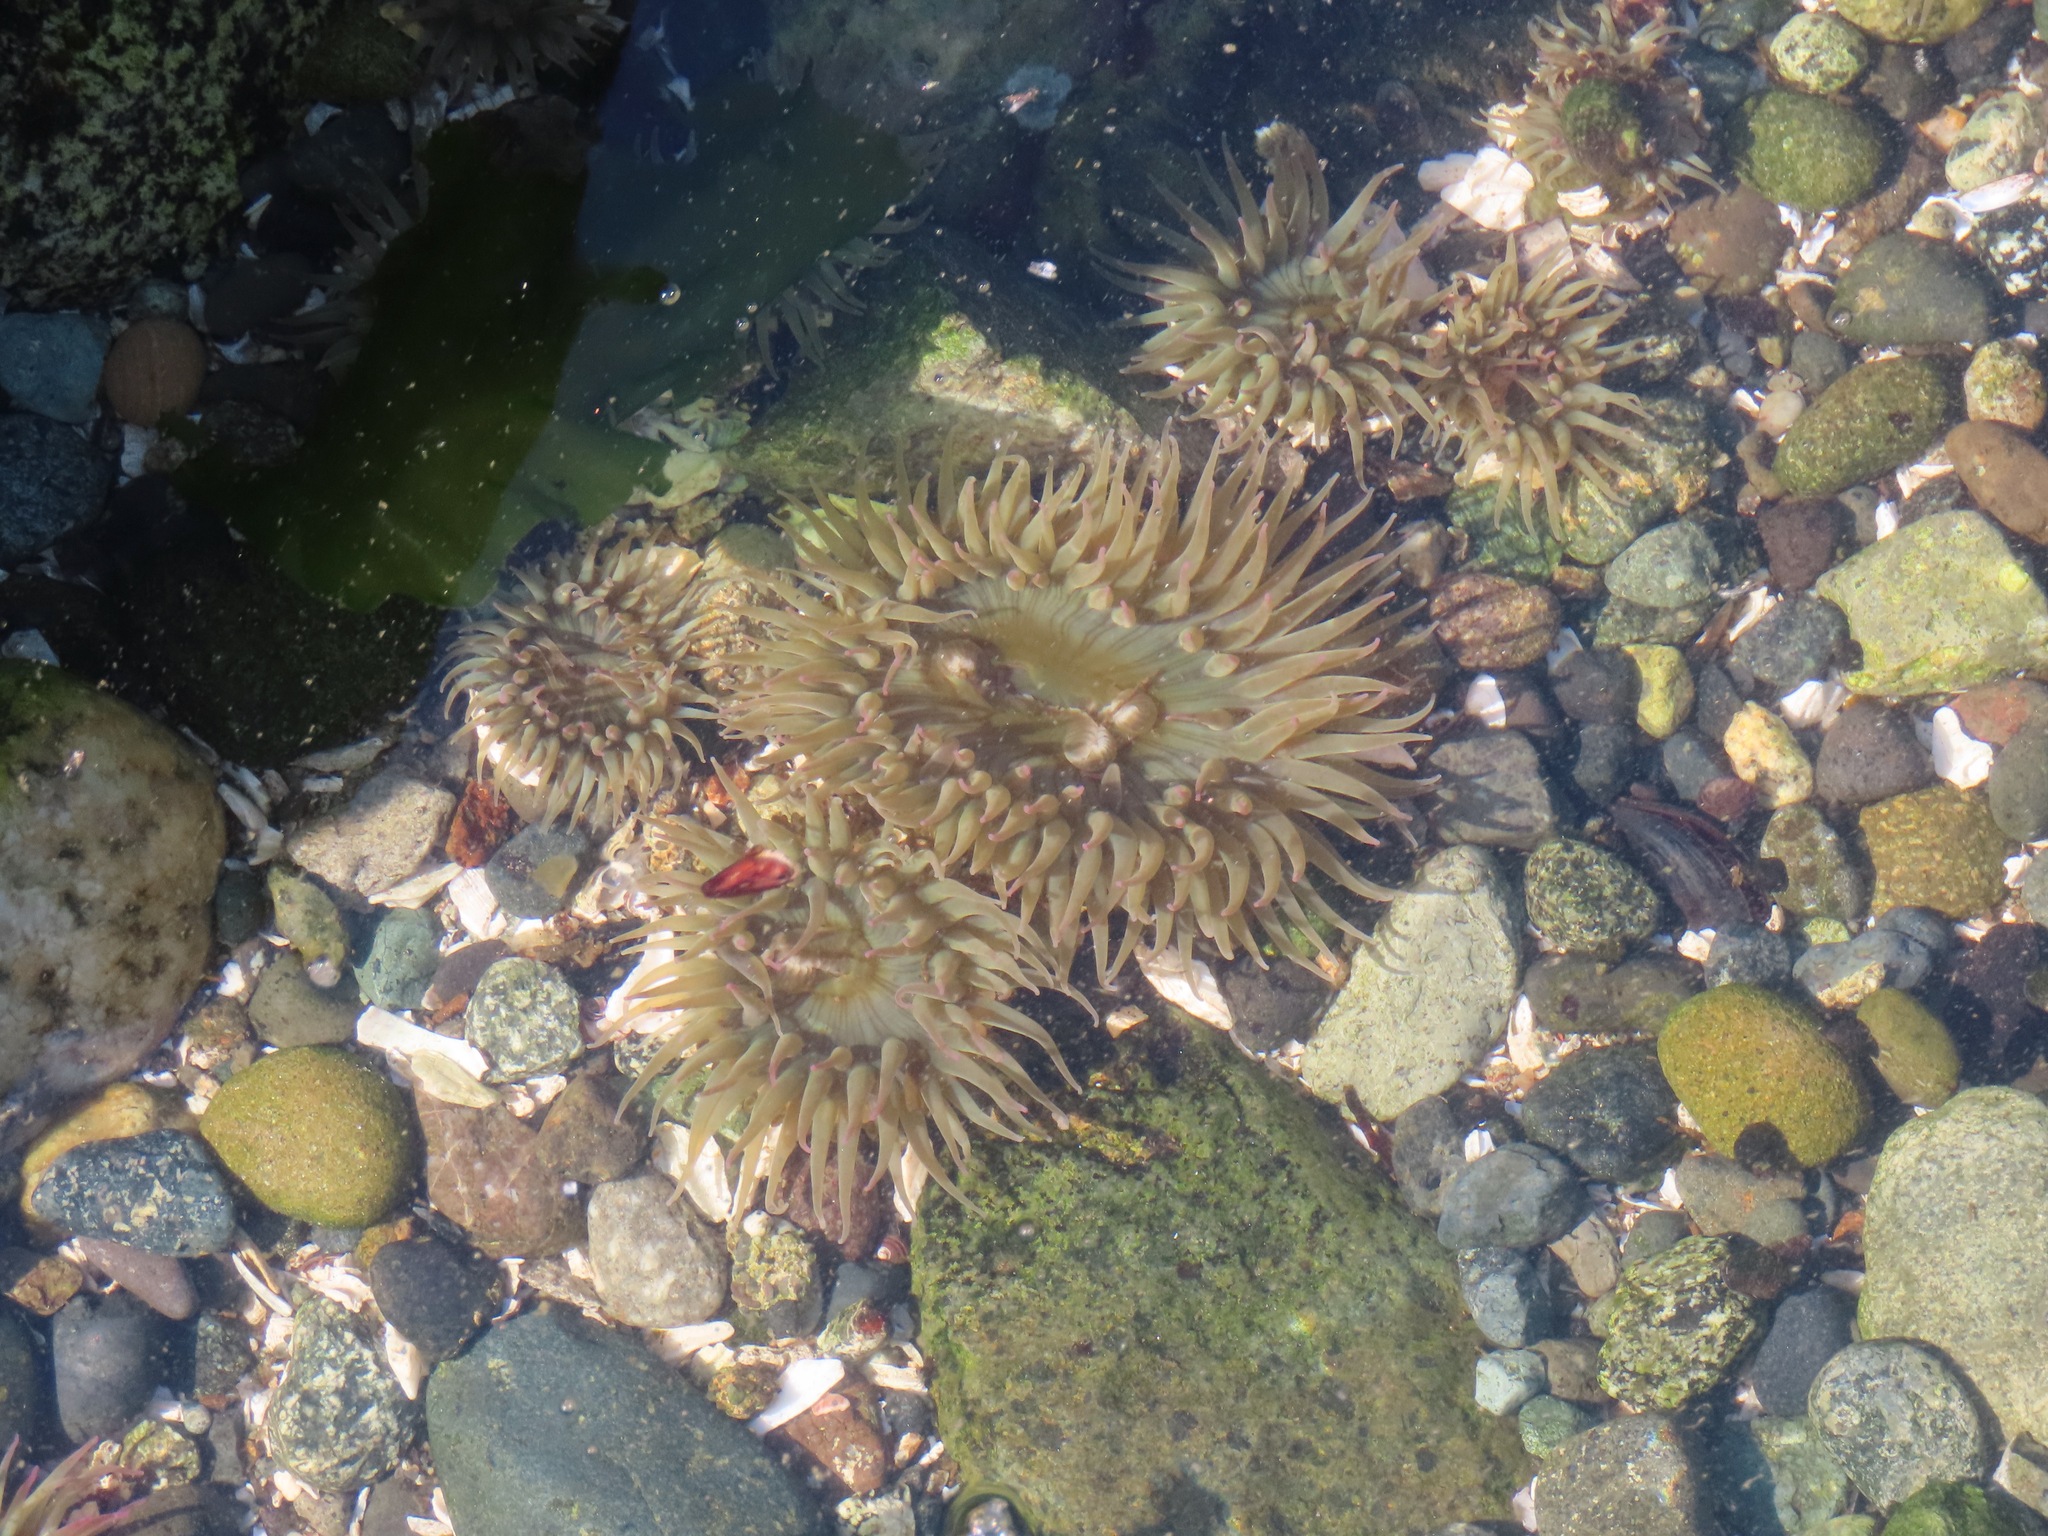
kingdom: Animalia
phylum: Cnidaria
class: Anthozoa
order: Actiniaria
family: Actiniidae
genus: Anthopleura
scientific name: Anthopleura elegantissima
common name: Clonal anemone
